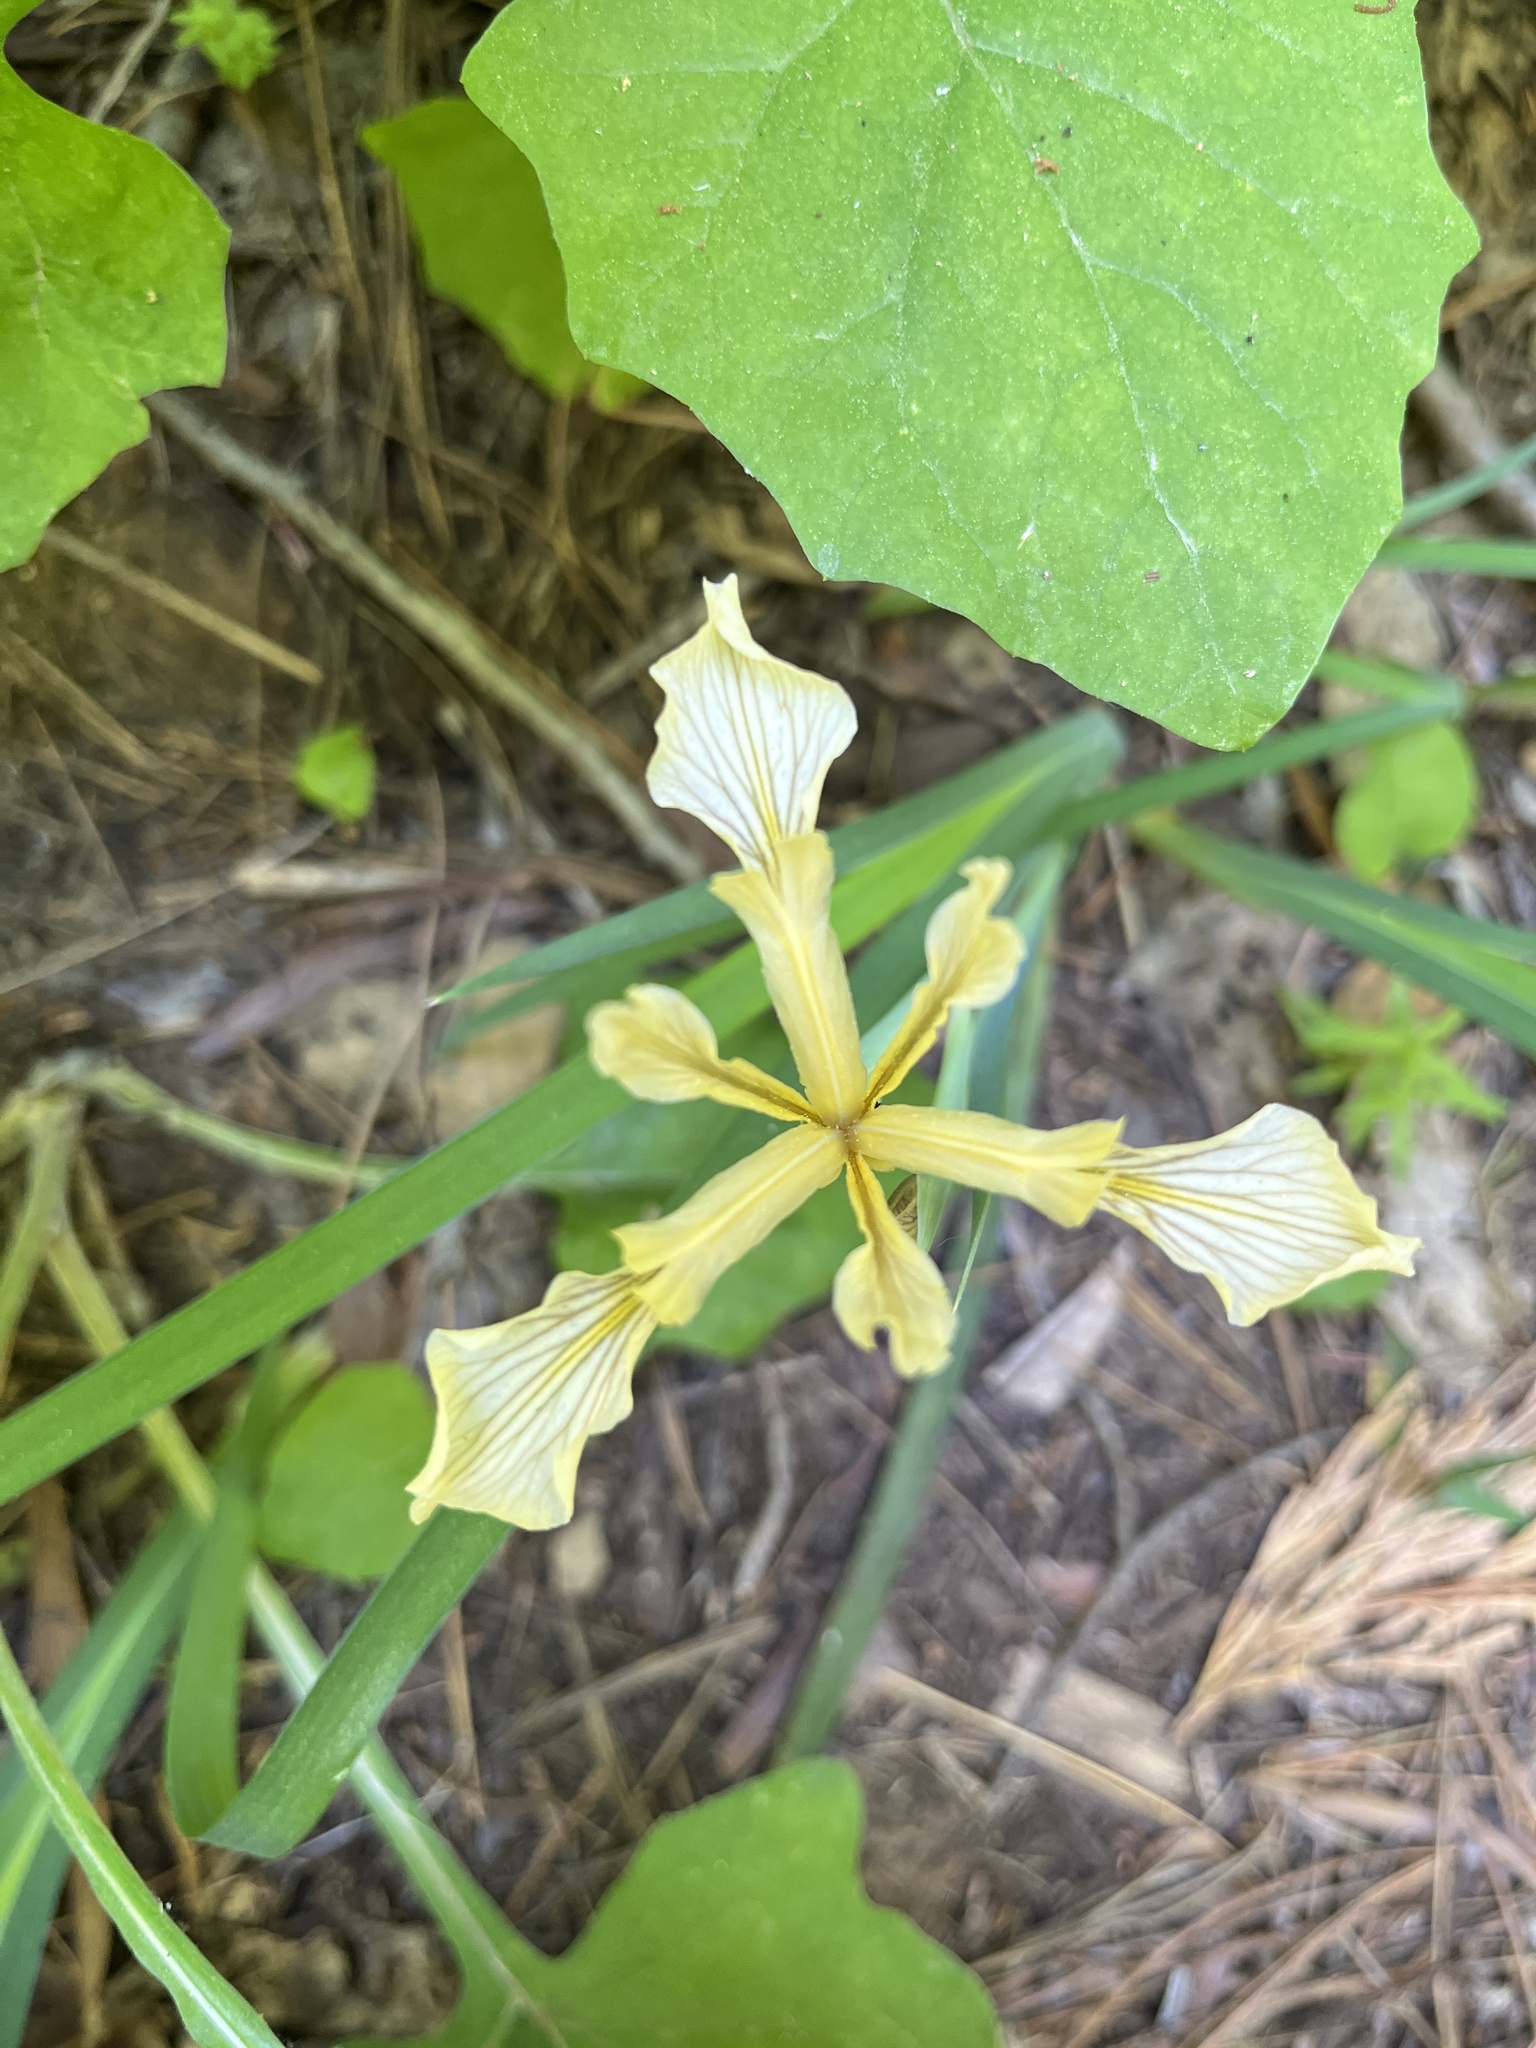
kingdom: Plantae
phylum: Tracheophyta
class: Liliopsida
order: Asparagales
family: Iridaceae
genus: Iris
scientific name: Iris hartwegii
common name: Sierra iris
